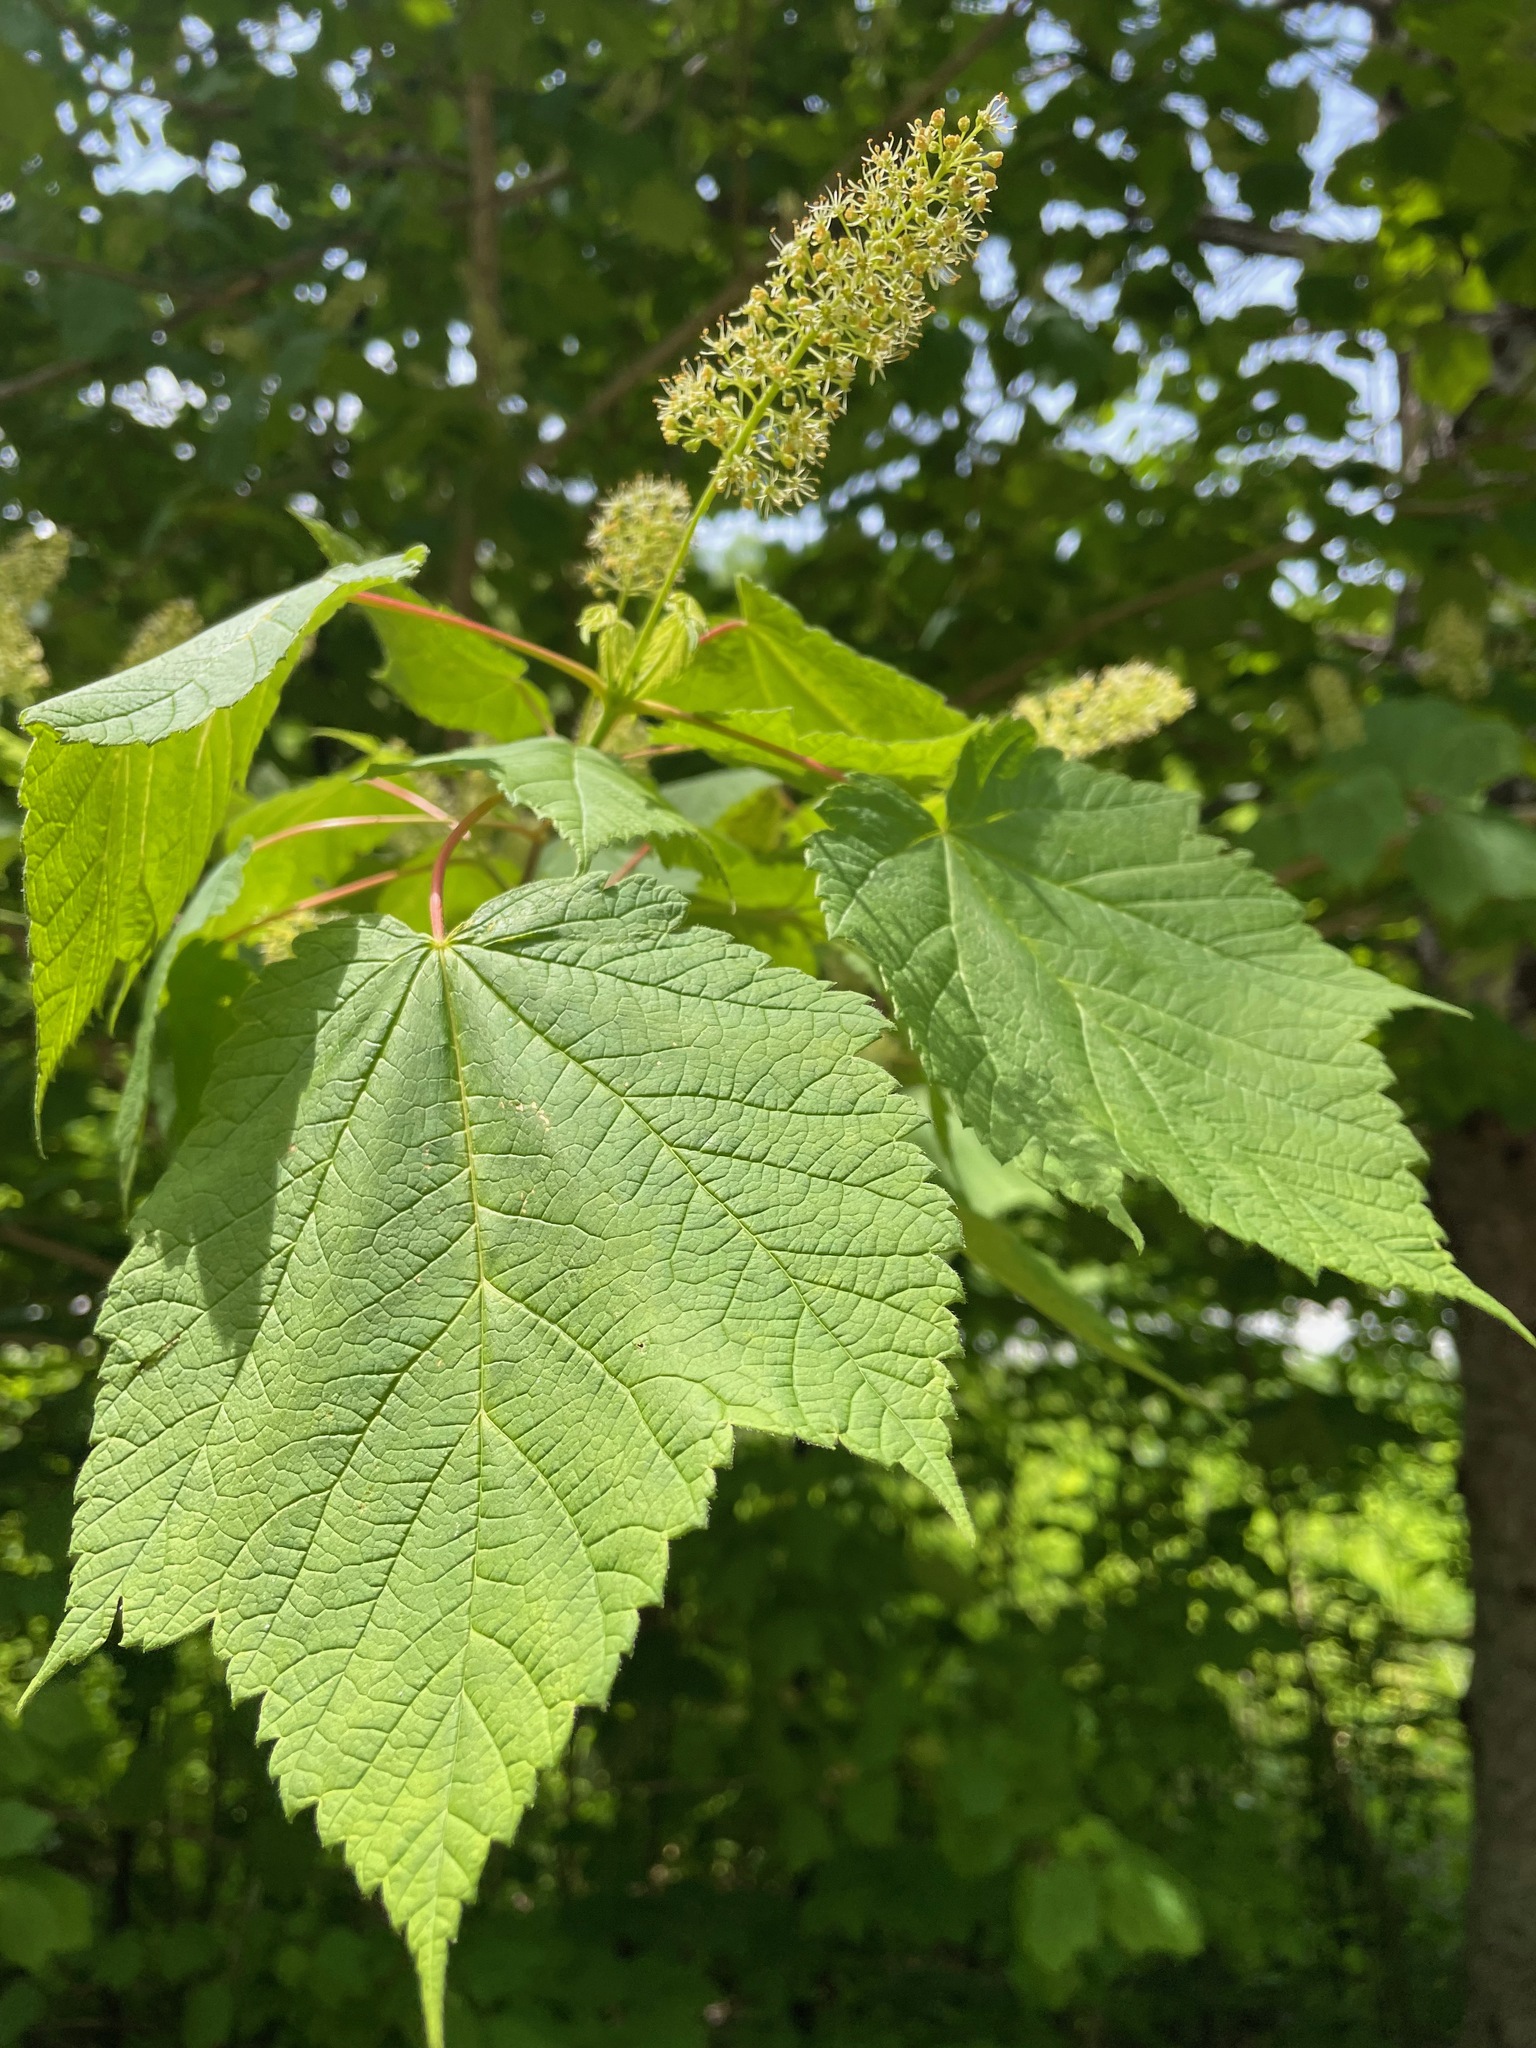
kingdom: Plantae
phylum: Tracheophyta
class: Magnoliopsida
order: Sapindales
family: Sapindaceae
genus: Acer
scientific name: Acer spicatum
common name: Mountain maple
